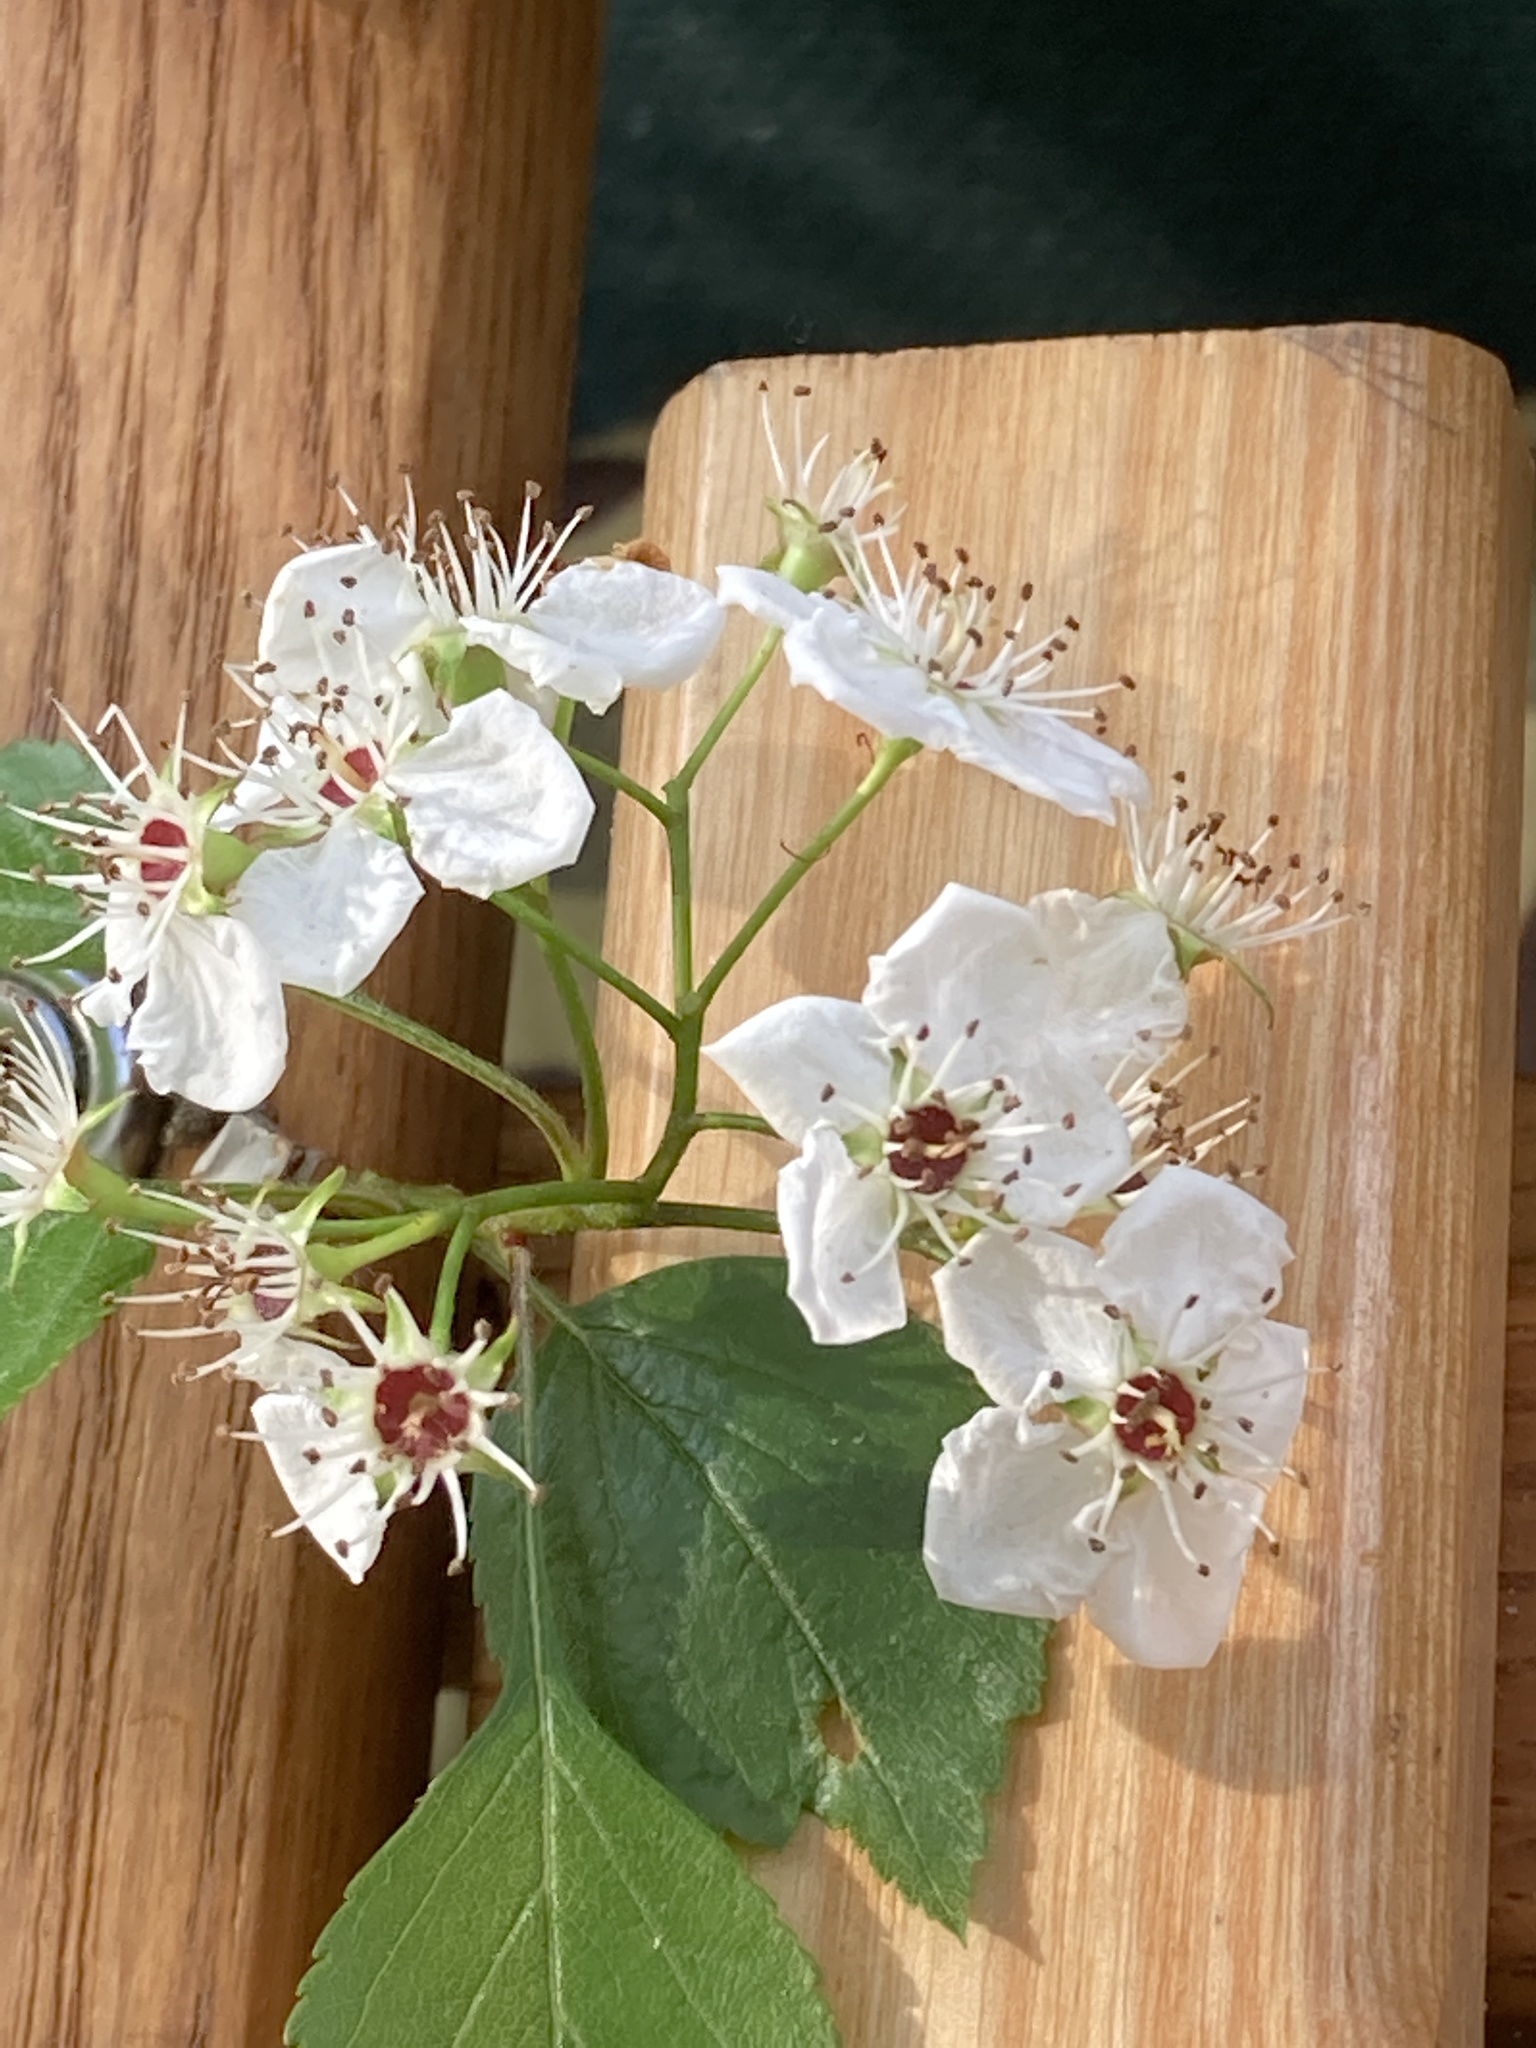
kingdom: Plantae
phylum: Tracheophyta
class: Magnoliopsida
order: Rosales
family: Rosaceae
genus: Crataegus
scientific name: Crataegus marshallii
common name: Parsley-hawthorn
